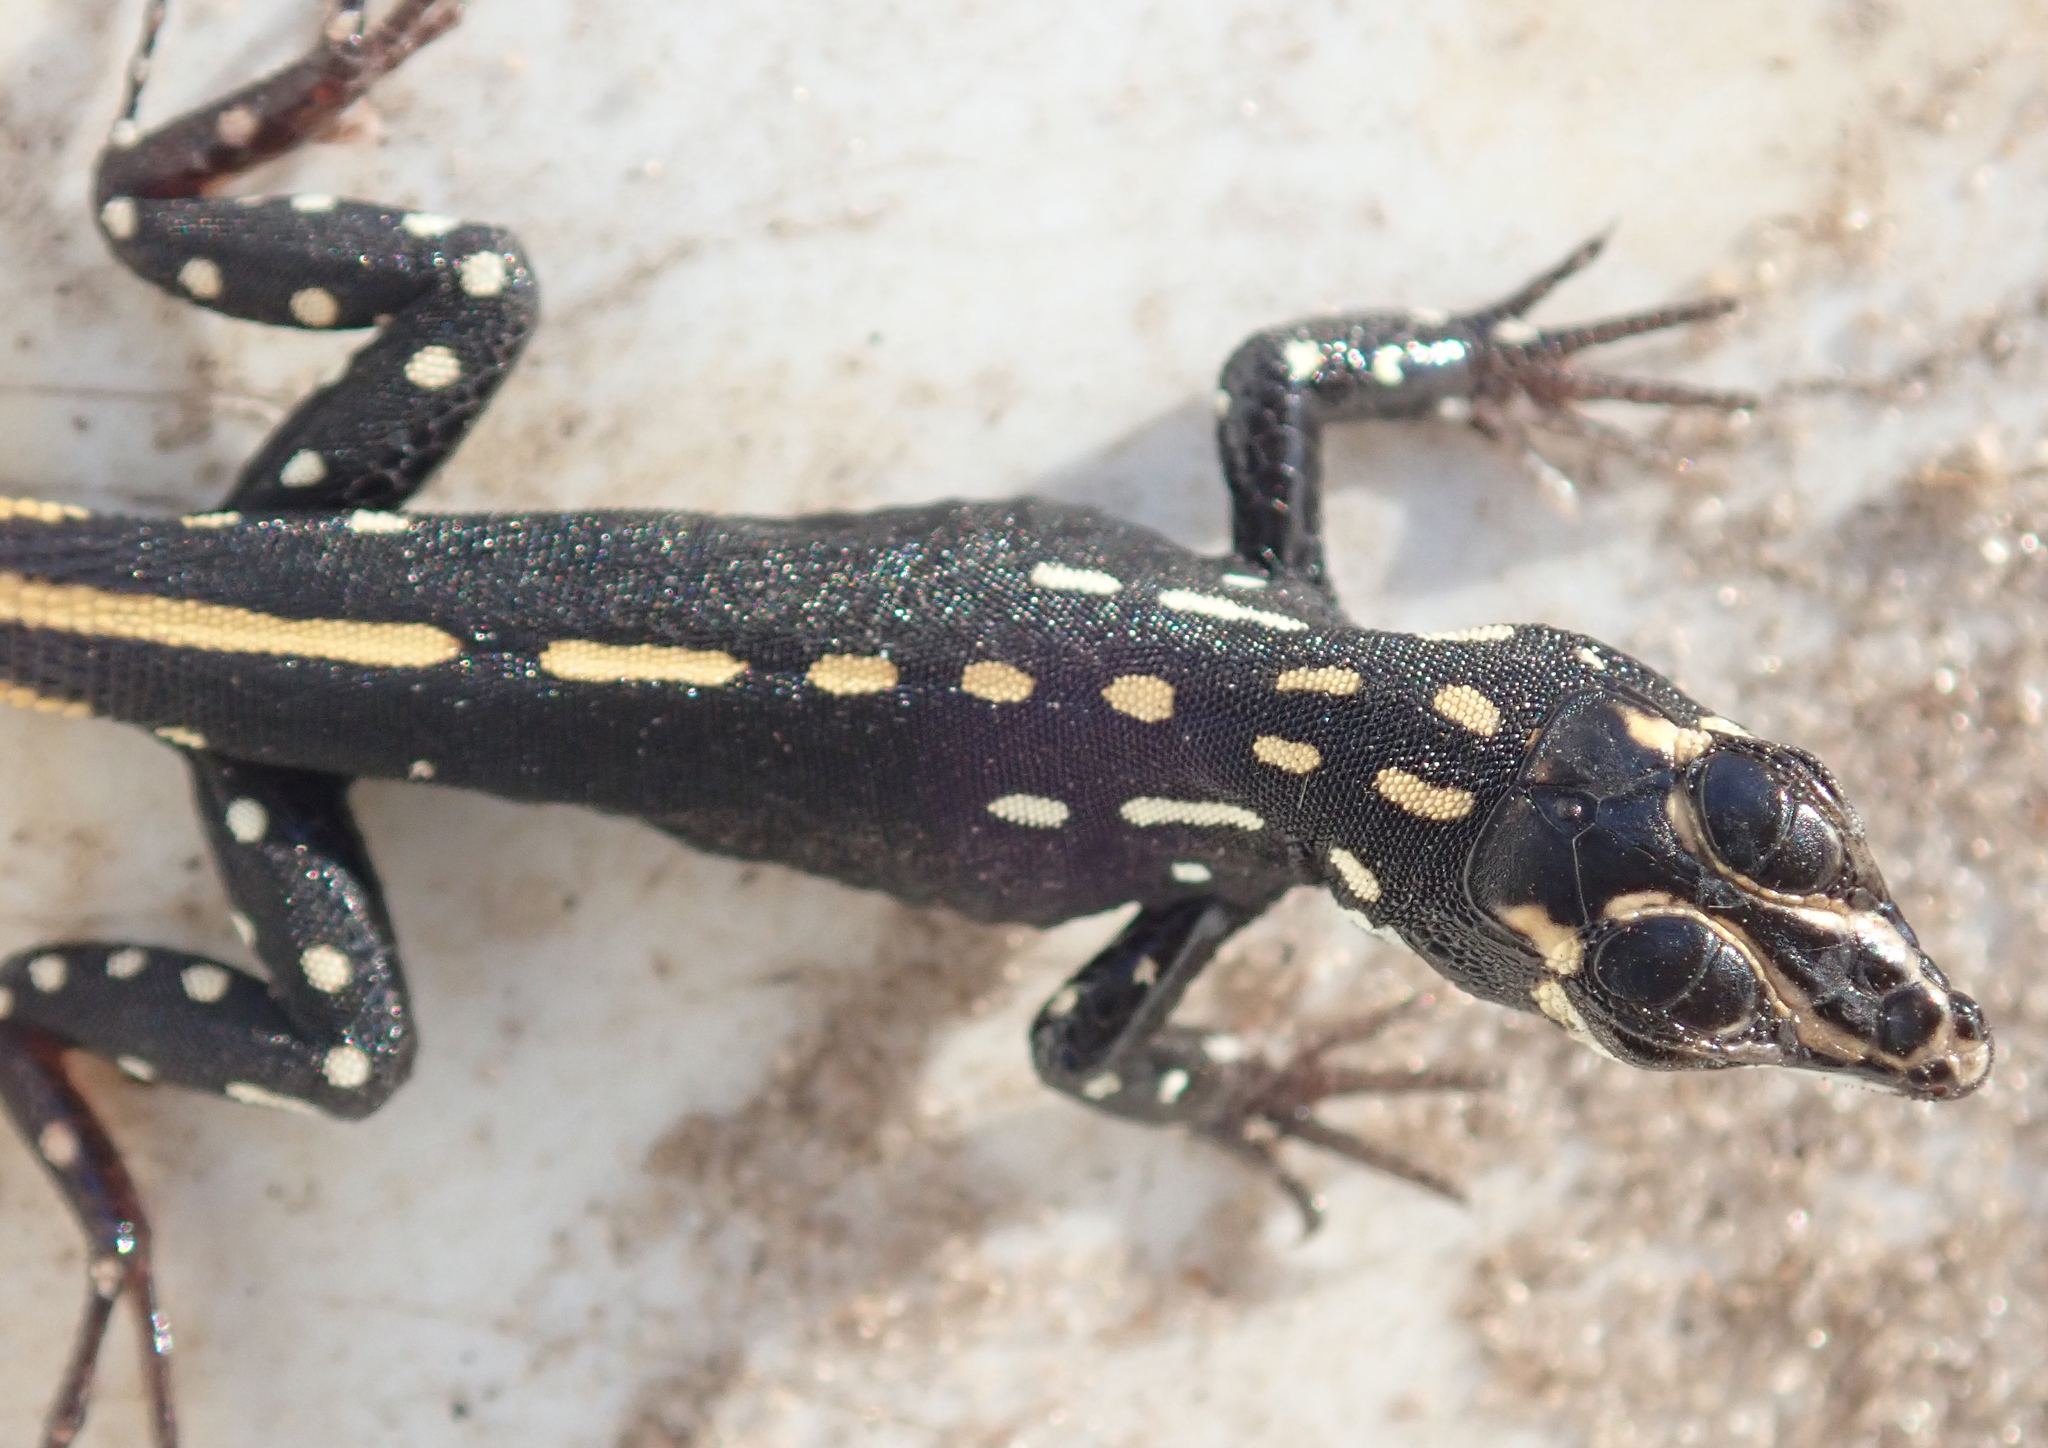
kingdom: Animalia
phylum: Chordata
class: Squamata
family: Lacertidae
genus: Heliobolus
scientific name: Heliobolus lugubris
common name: Bushveld lizard
